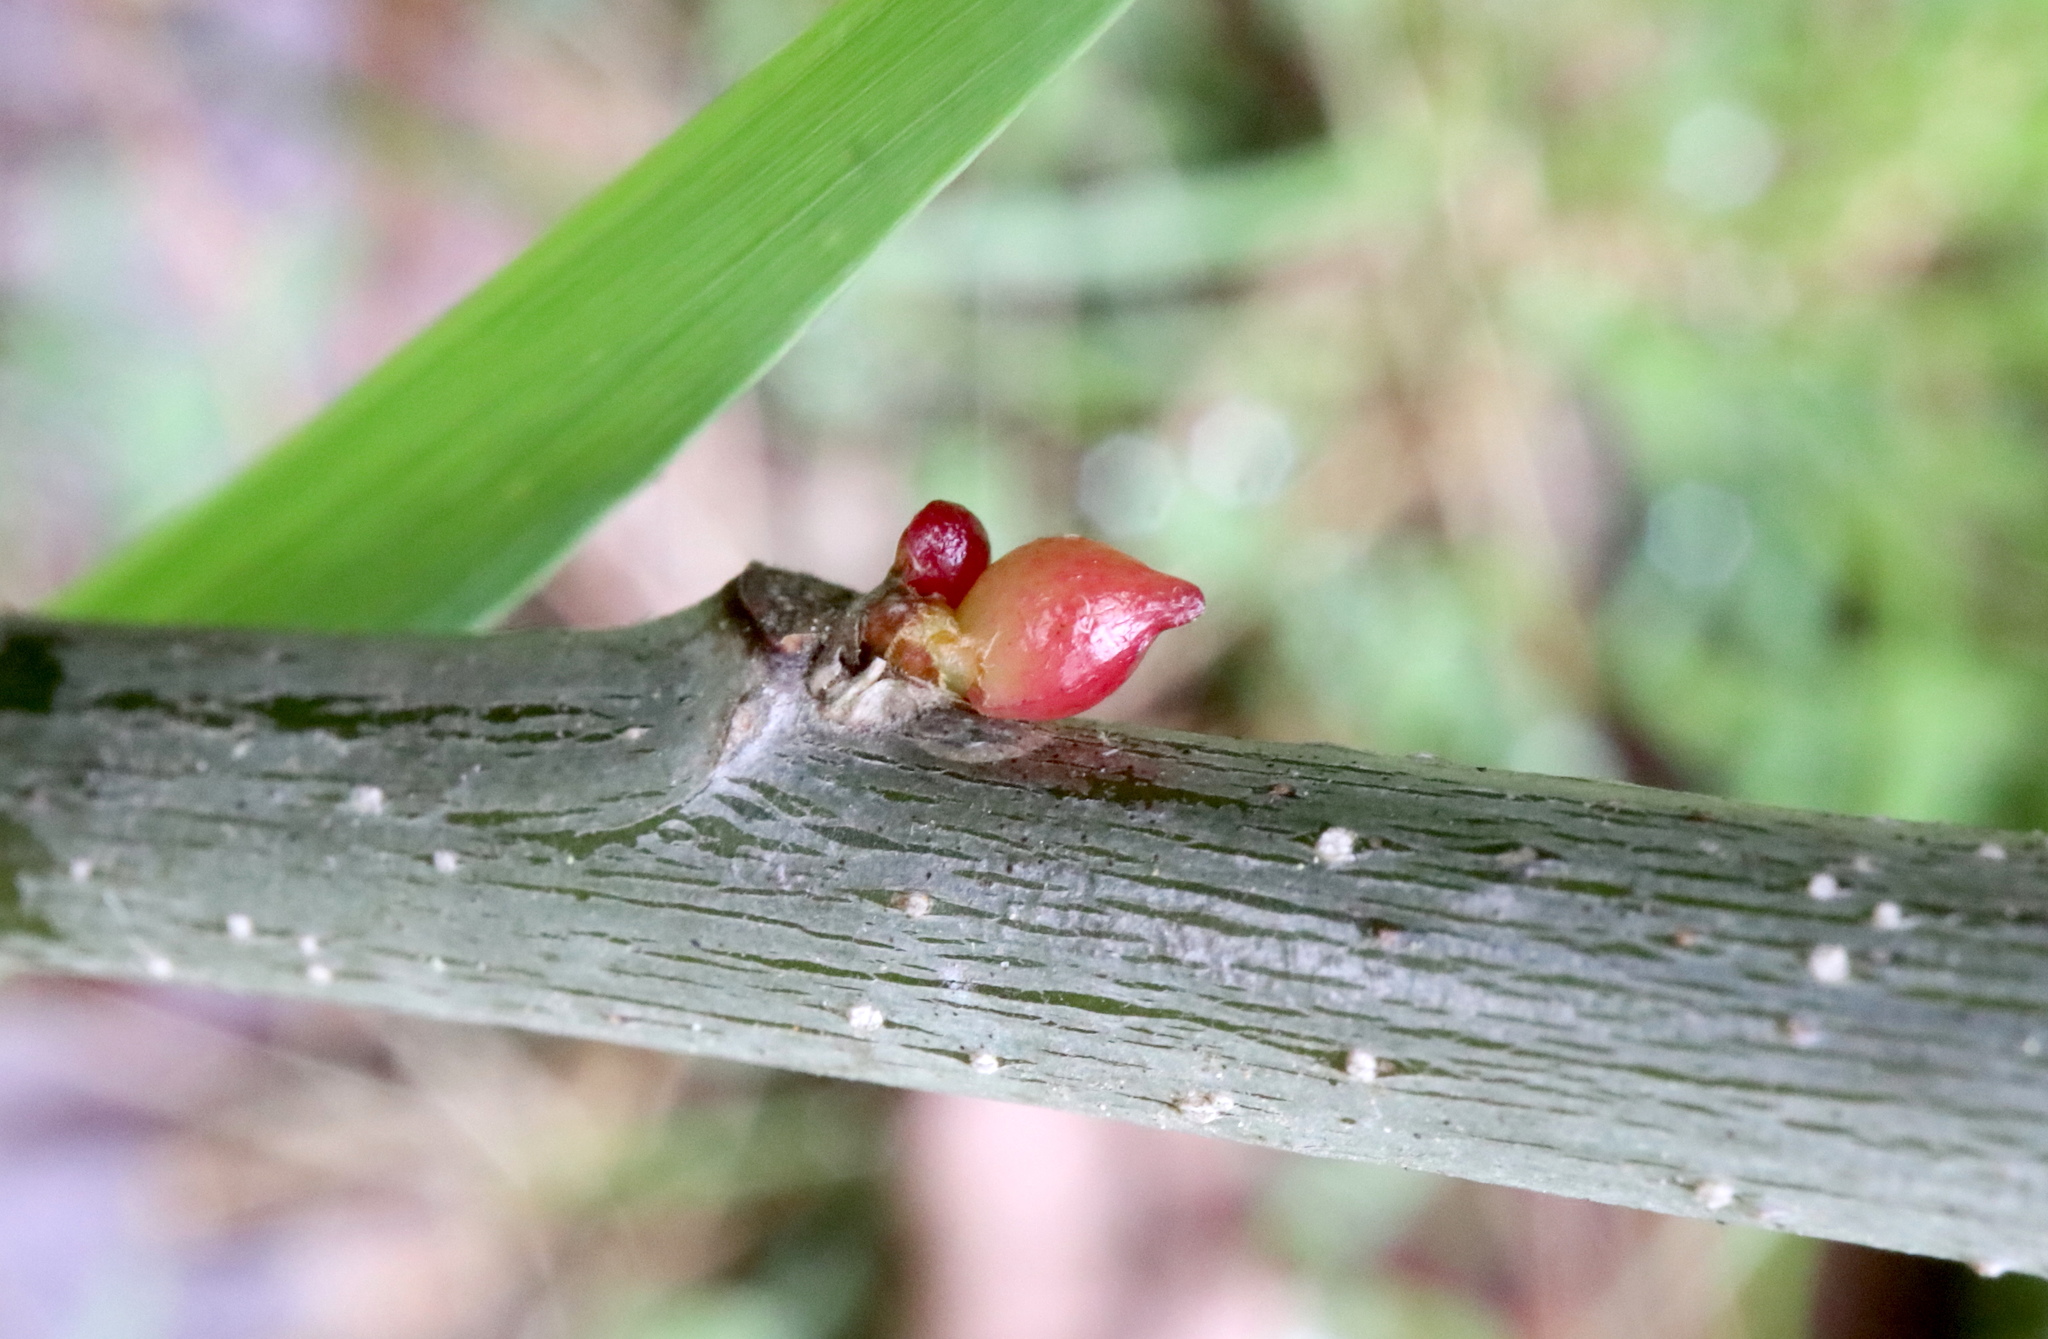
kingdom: Animalia
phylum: Arthropoda
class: Insecta
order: Hymenoptera
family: Cynipidae
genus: Amphibolips
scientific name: Amphibolips
